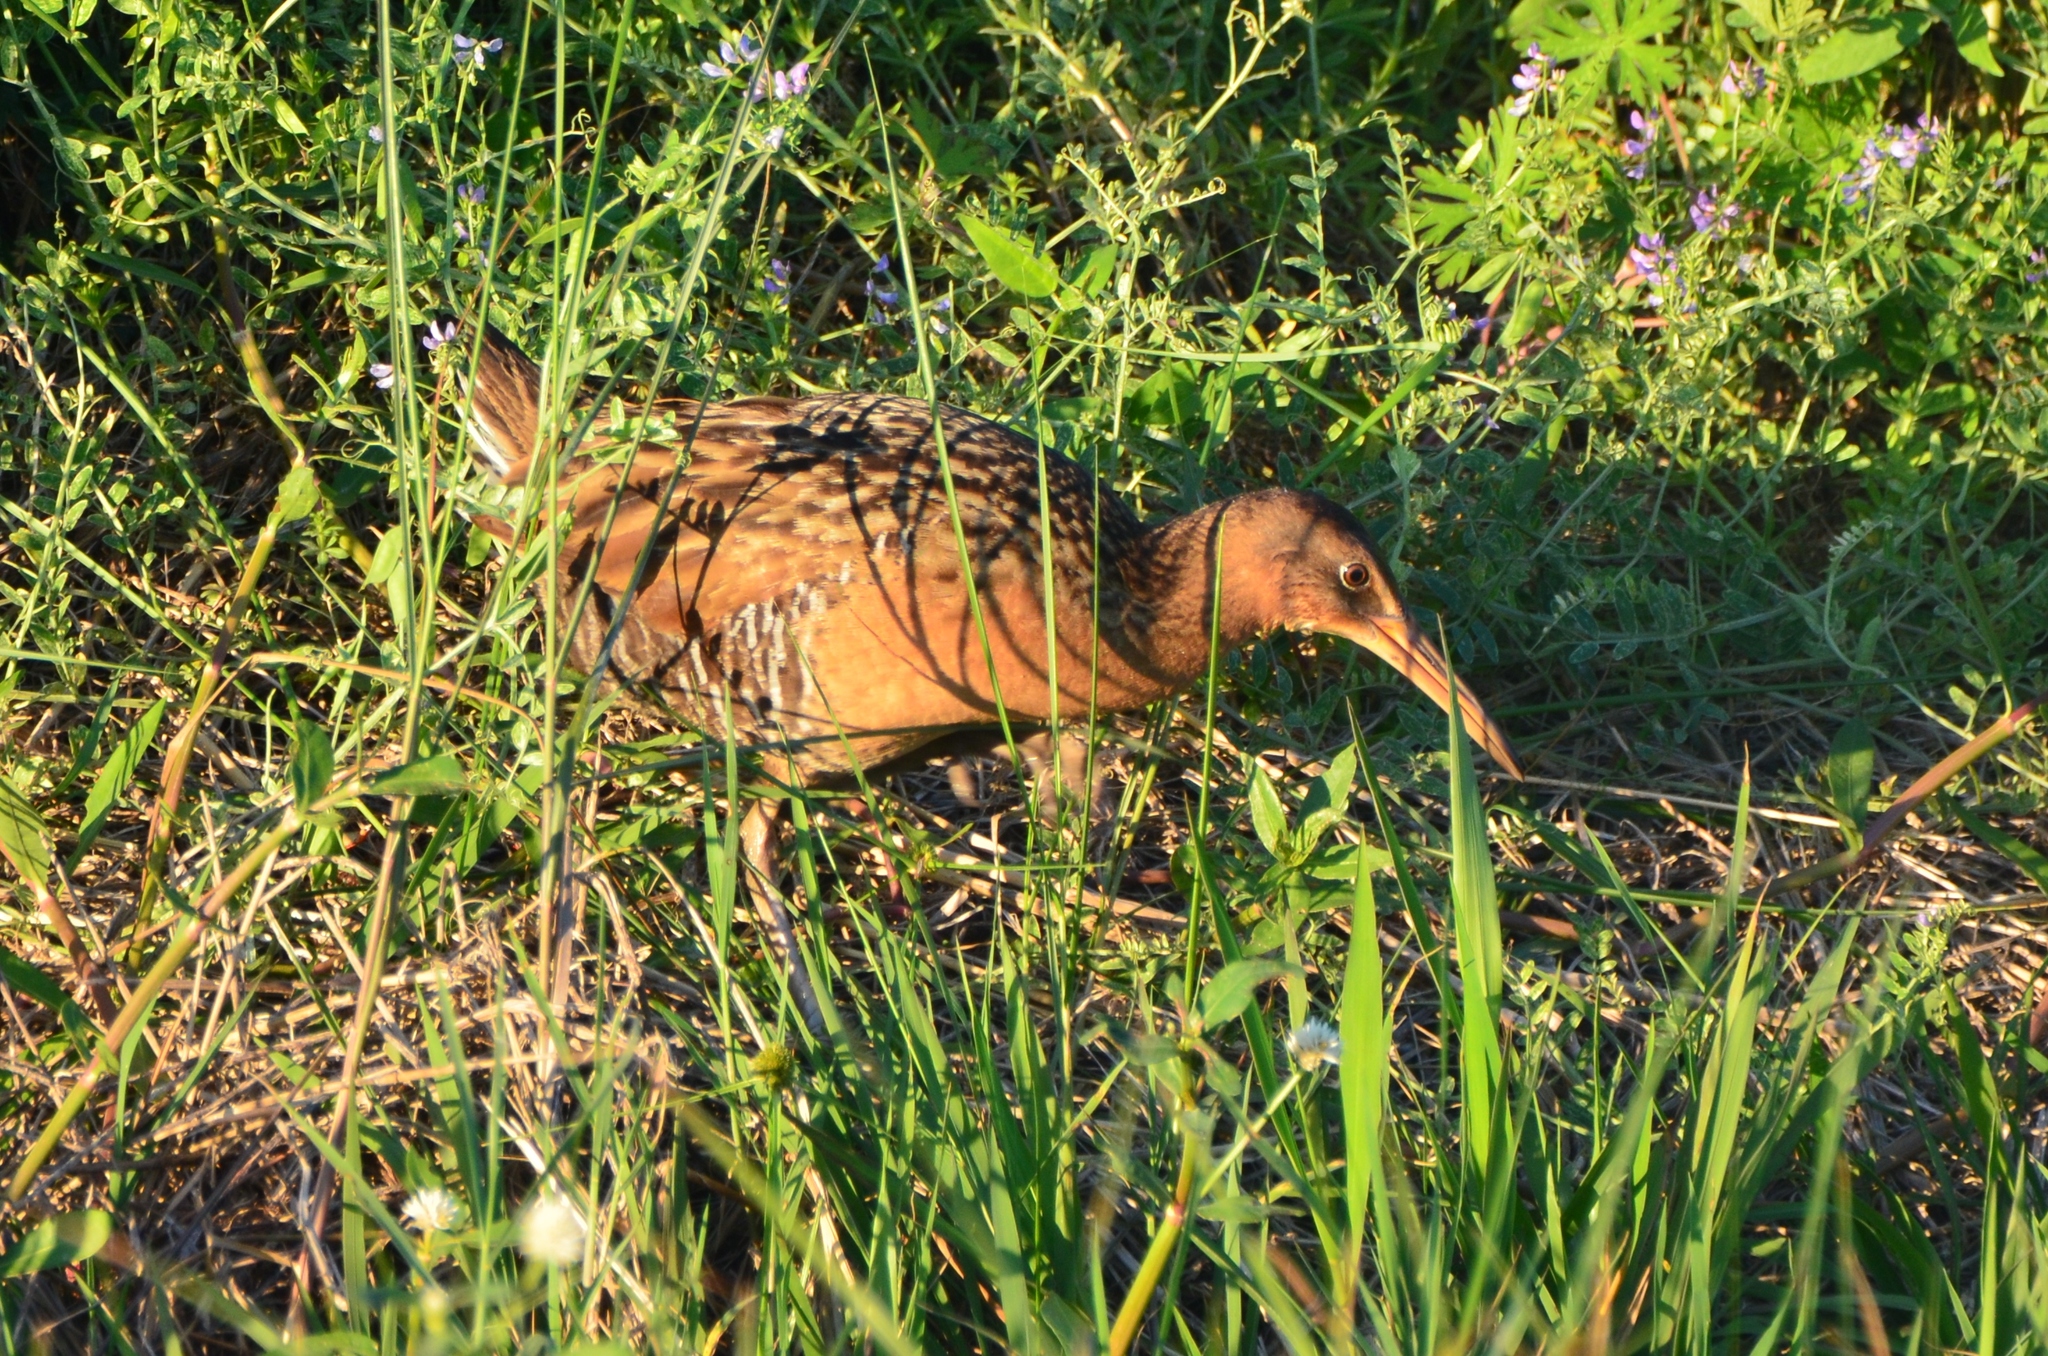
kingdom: Animalia
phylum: Chordata
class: Aves
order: Gruiformes
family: Rallidae
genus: Rallus
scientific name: Rallus elegans
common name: King rail
